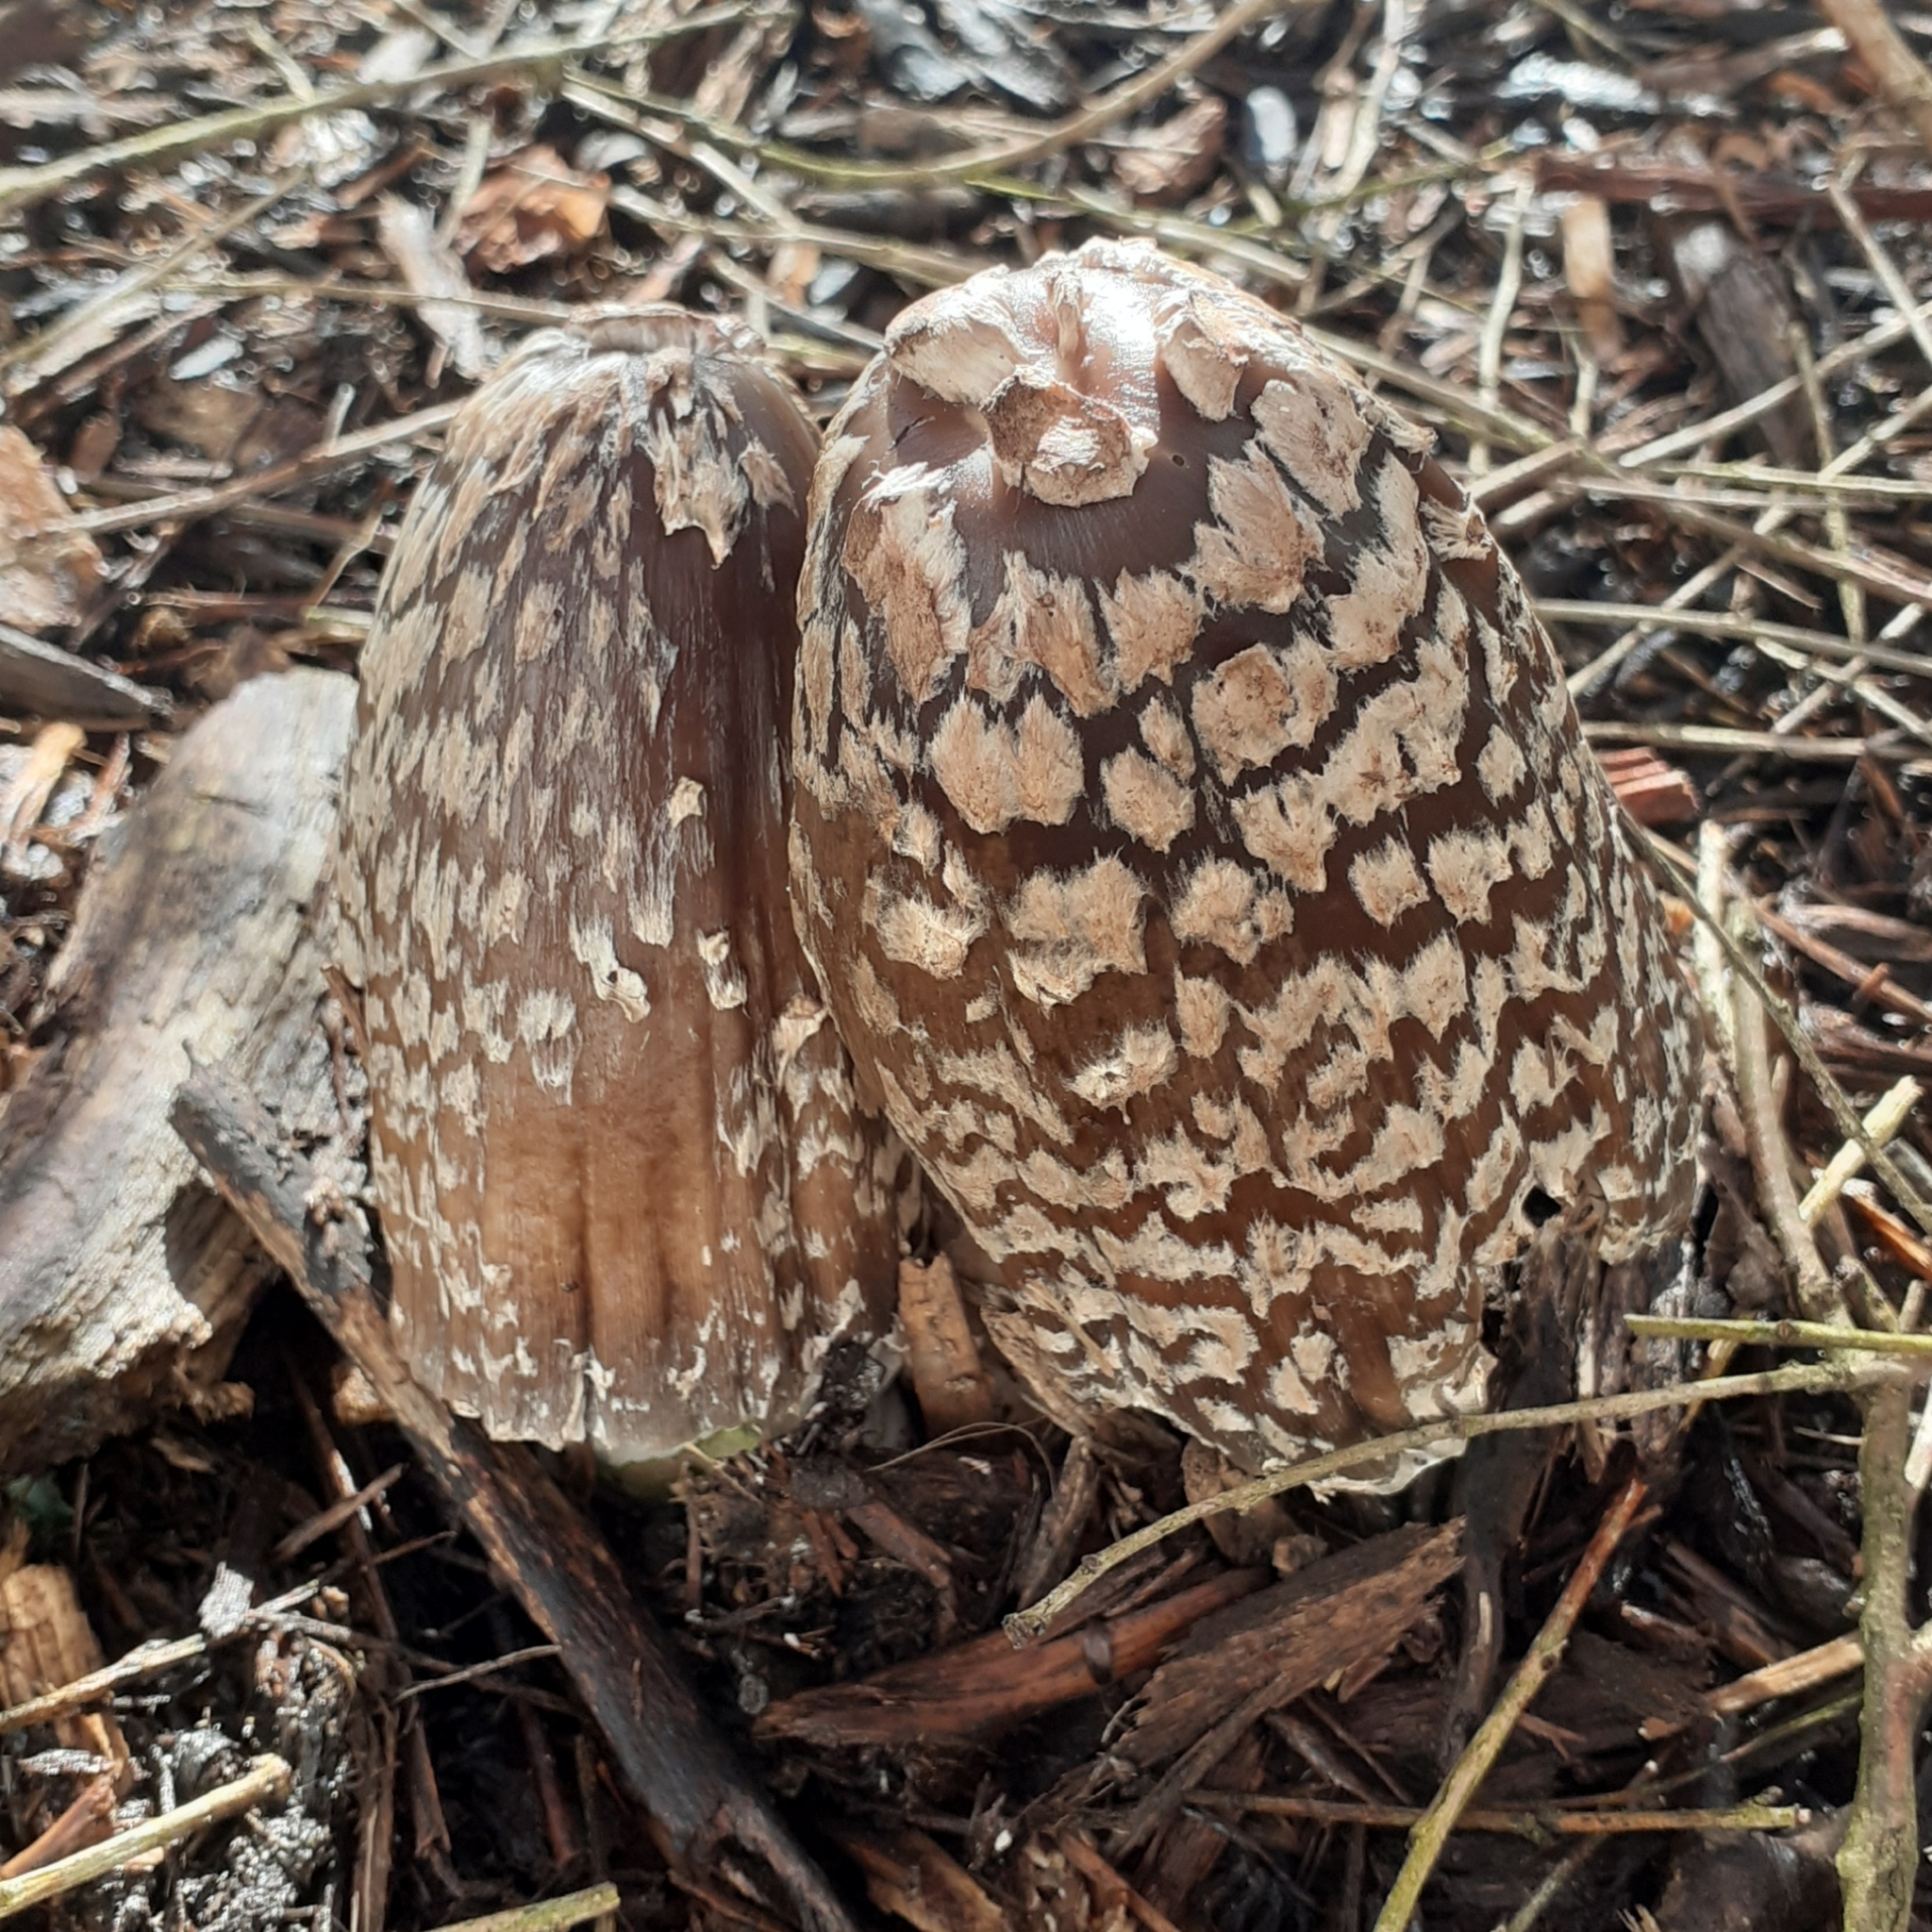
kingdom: Fungi
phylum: Basidiomycota
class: Agaricomycetes
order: Agaricales
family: Psathyrellaceae
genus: Coprinopsis
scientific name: Coprinopsis picacea
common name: Magpie inkcap
